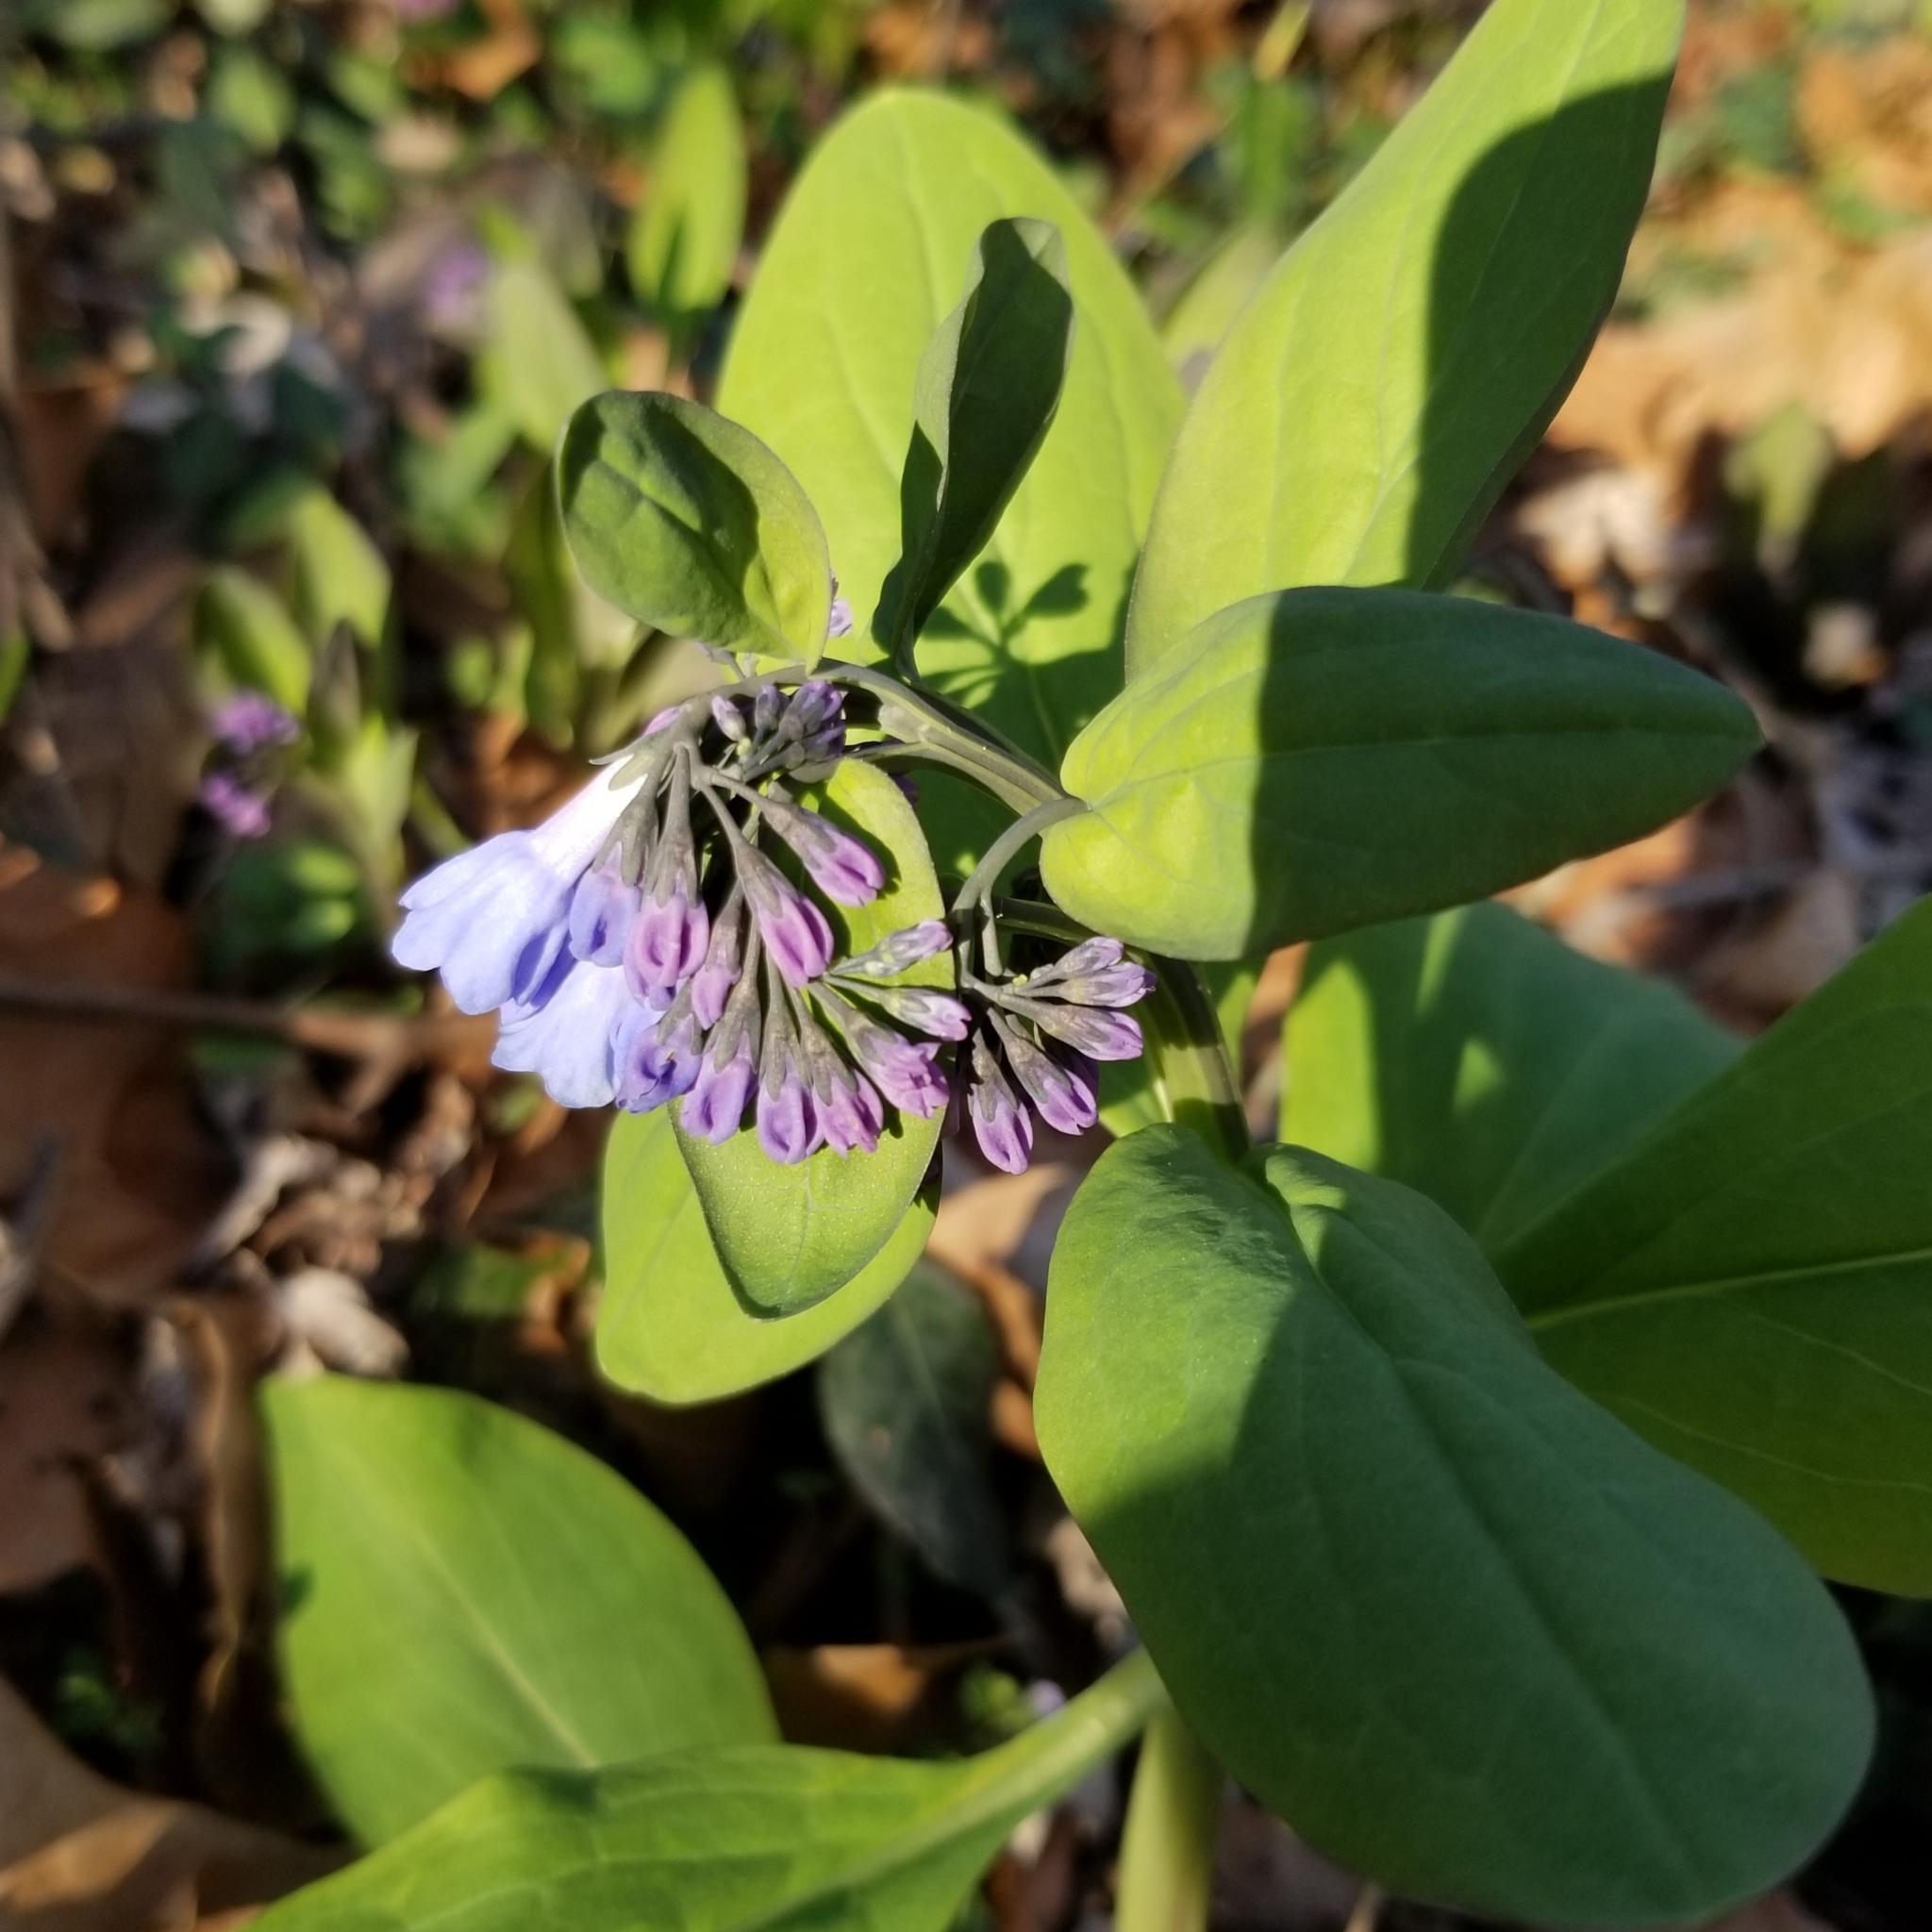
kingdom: Plantae
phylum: Tracheophyta
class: Magnoliopsida
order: Boraginales
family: Boraginaceae
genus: Mertensia
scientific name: Mertensia virginica
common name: Virginia bluebells
